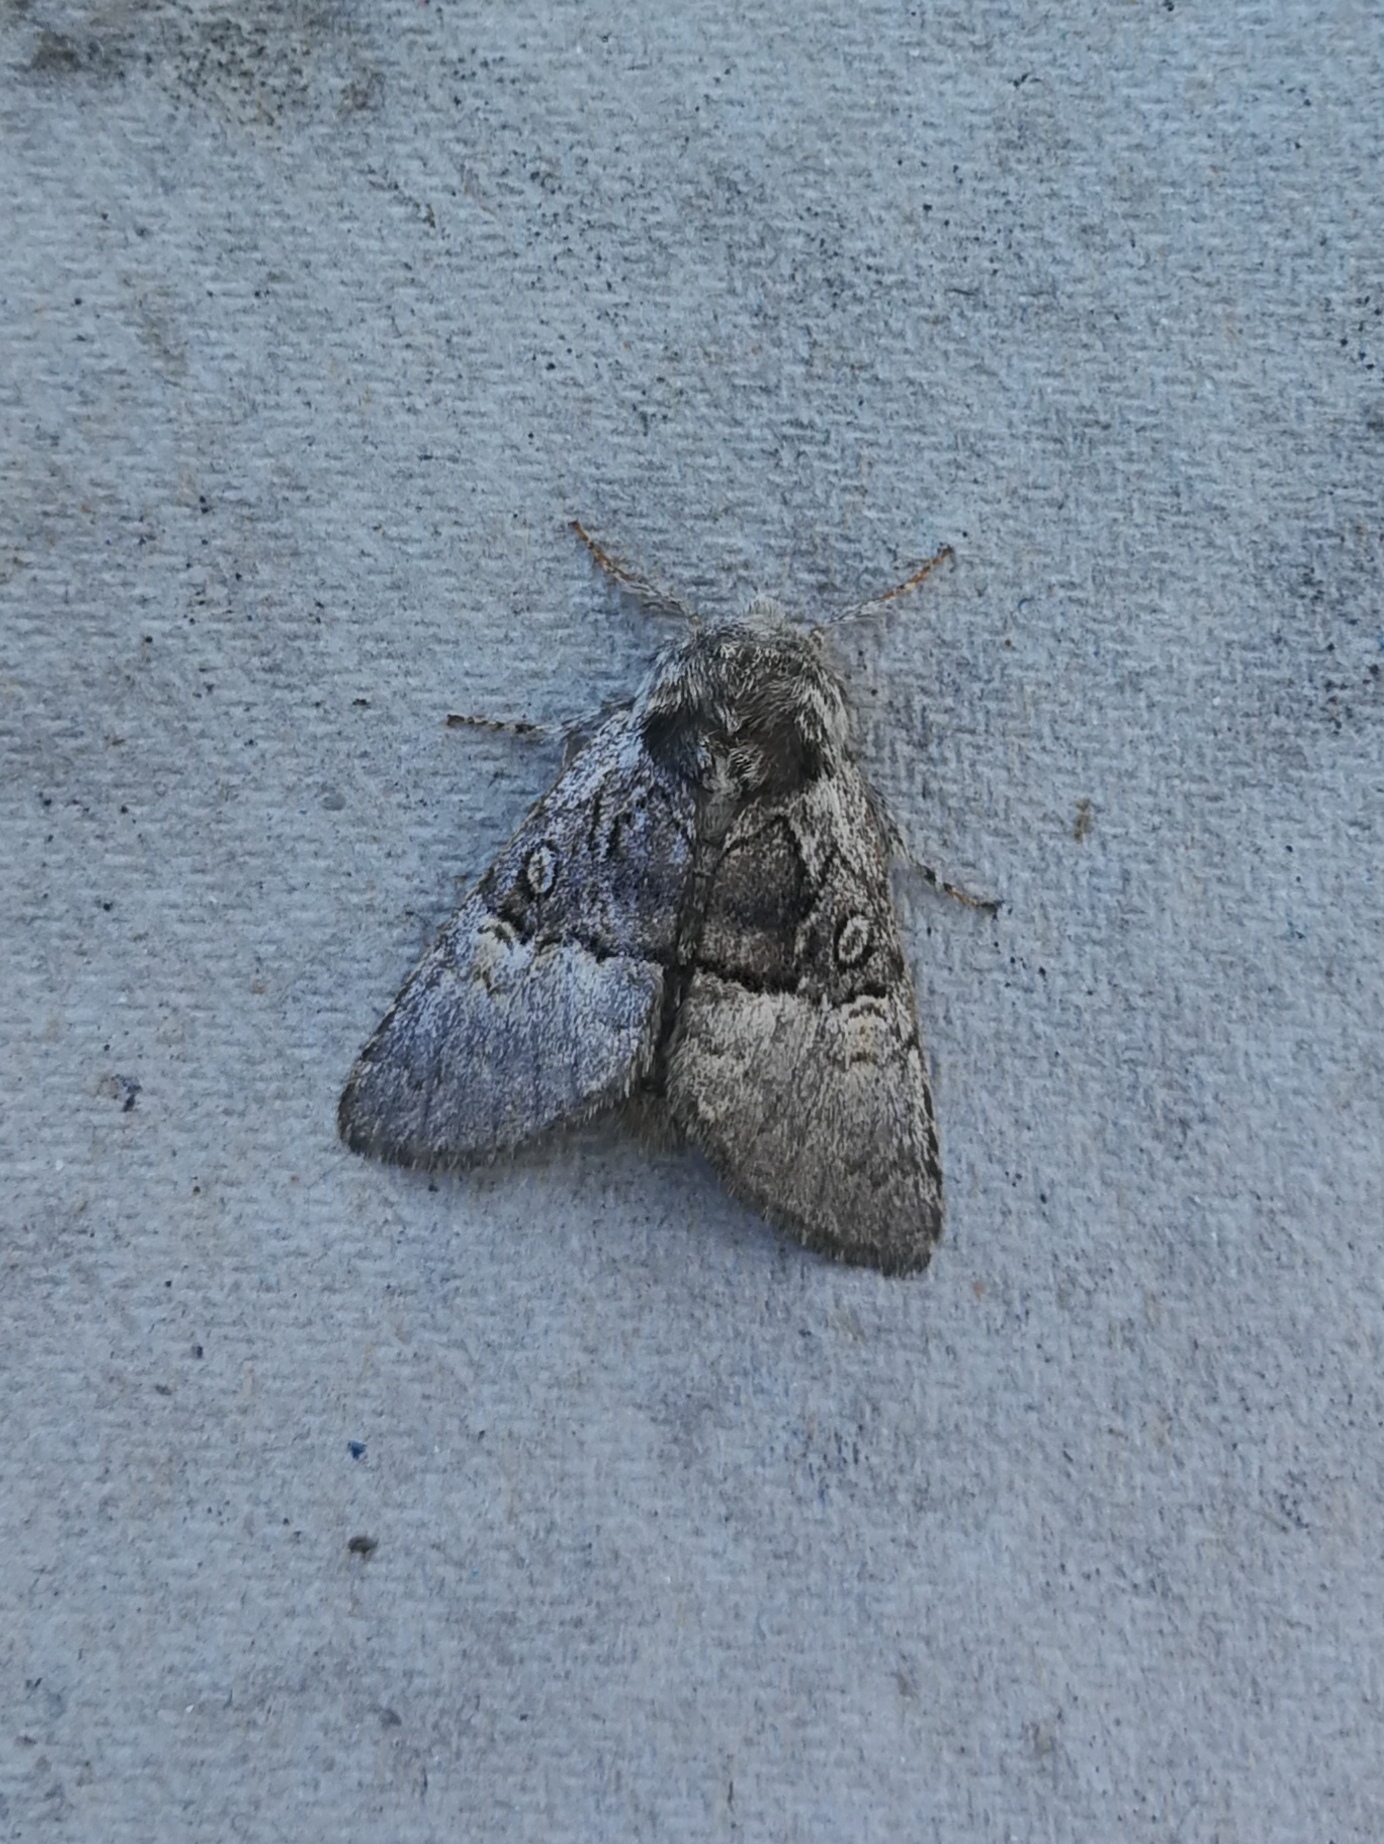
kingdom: Animalia
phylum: Arthropoda
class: Insecta
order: Lepidoptera
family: Noctuidae
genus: Colocasia
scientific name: Colocasia coryli
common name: Nut-tree tussock
